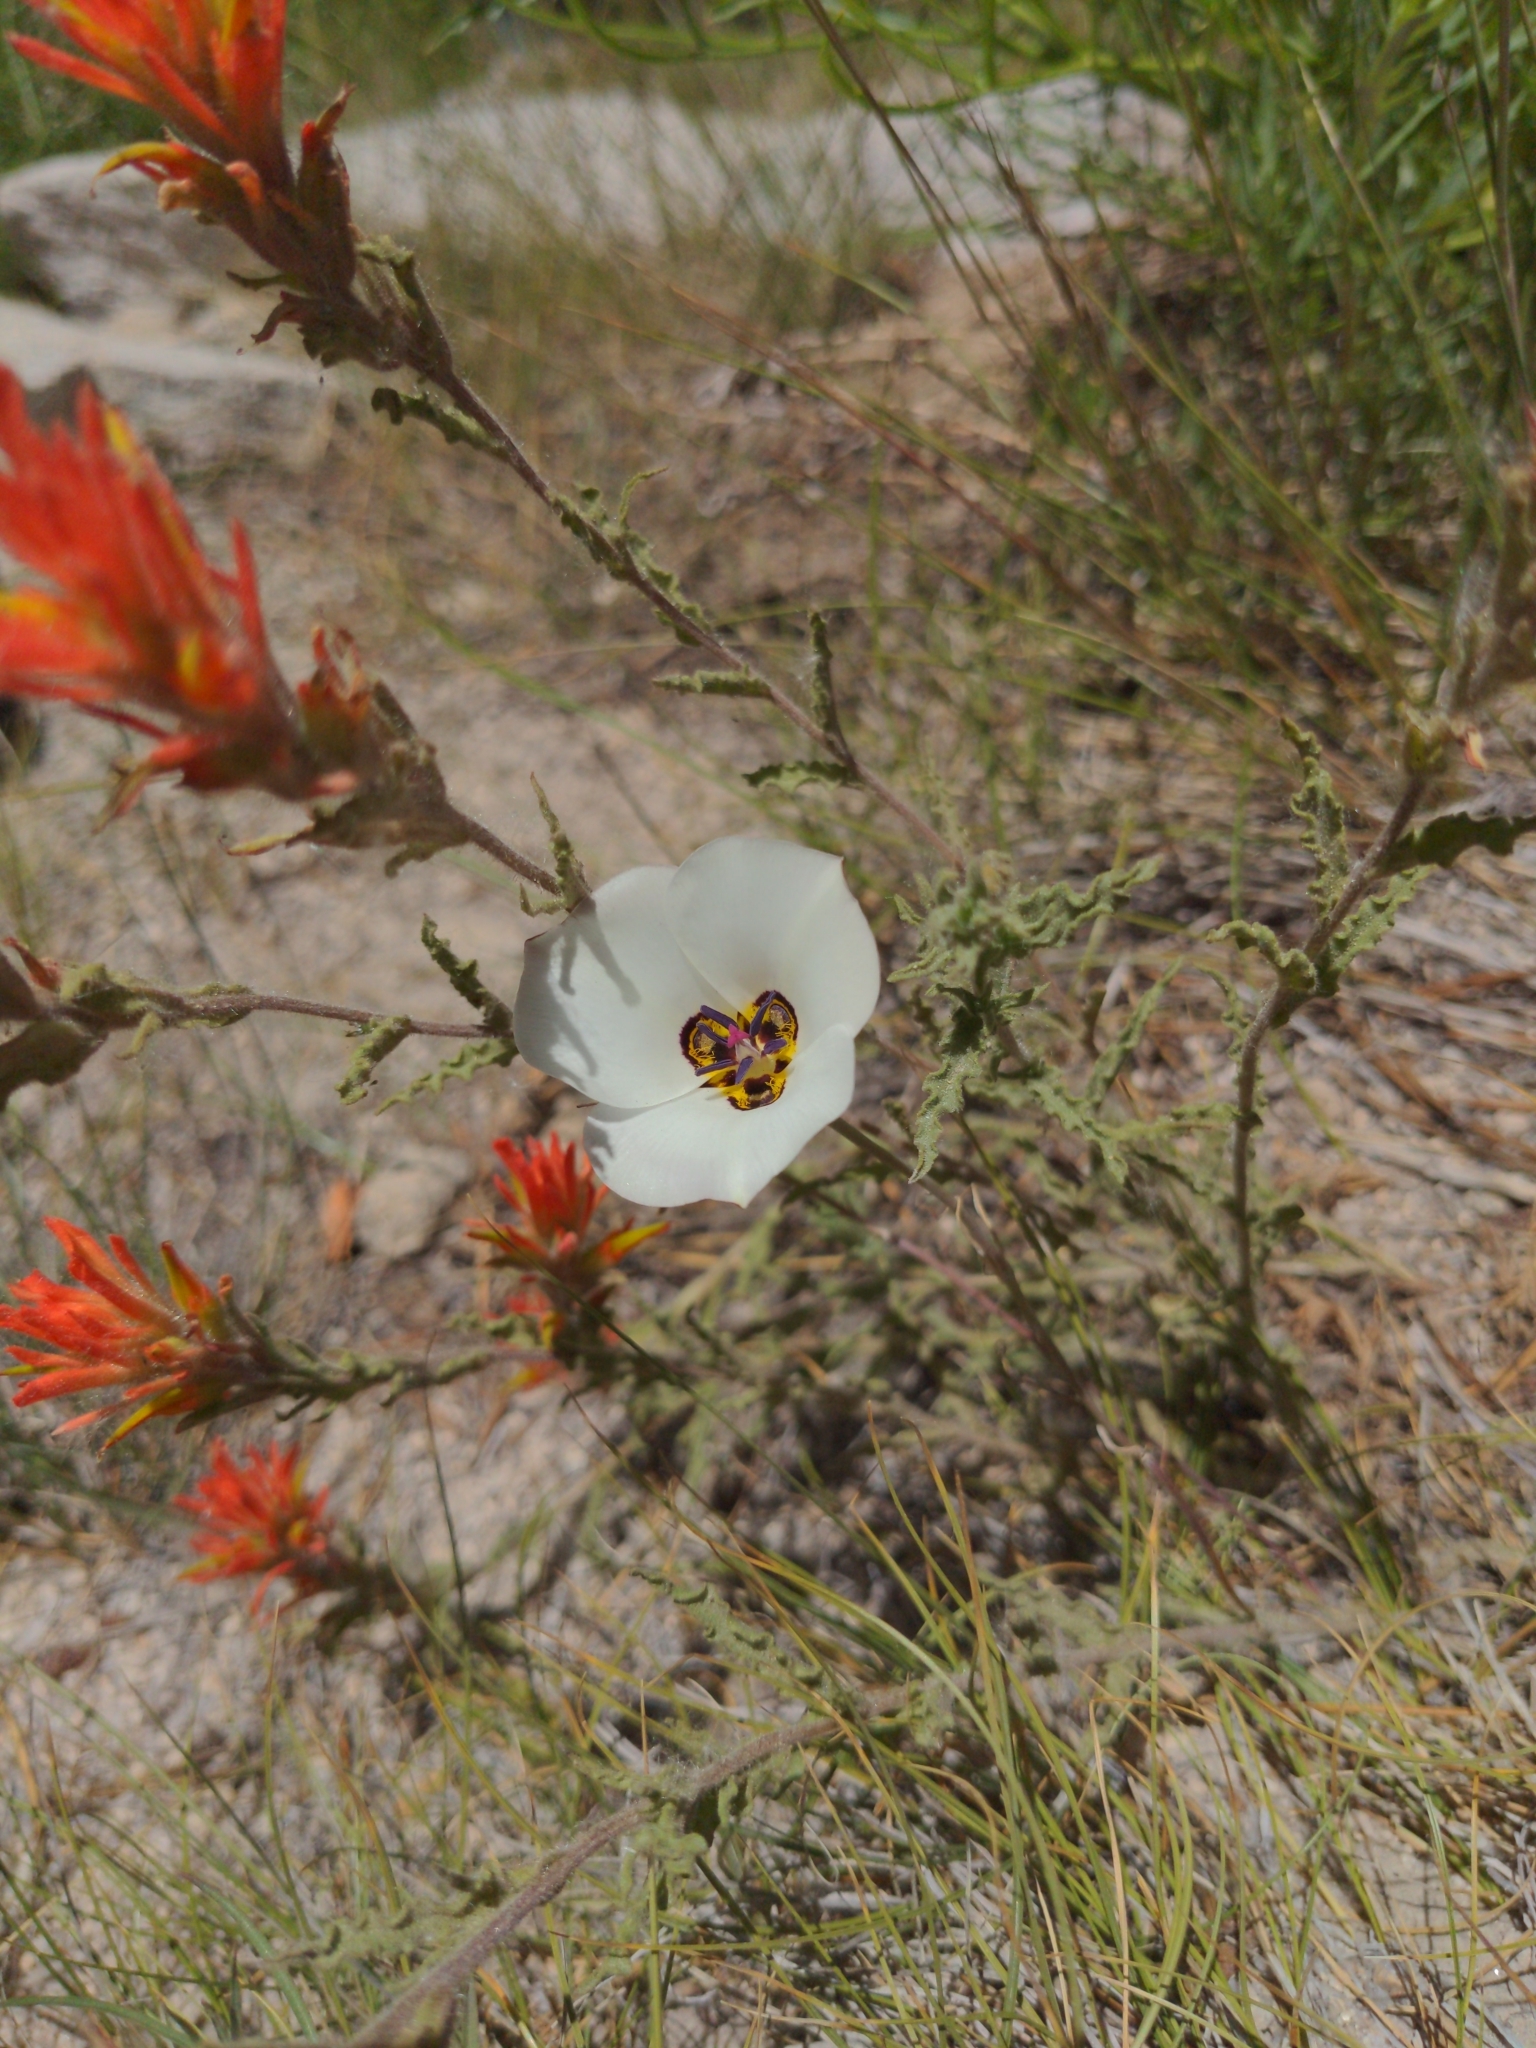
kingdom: Plantae
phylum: Tracheophyta
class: Liliopsida
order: Liliales
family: Liliaceae
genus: Calochortus
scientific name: Calochortus bruneaunis
